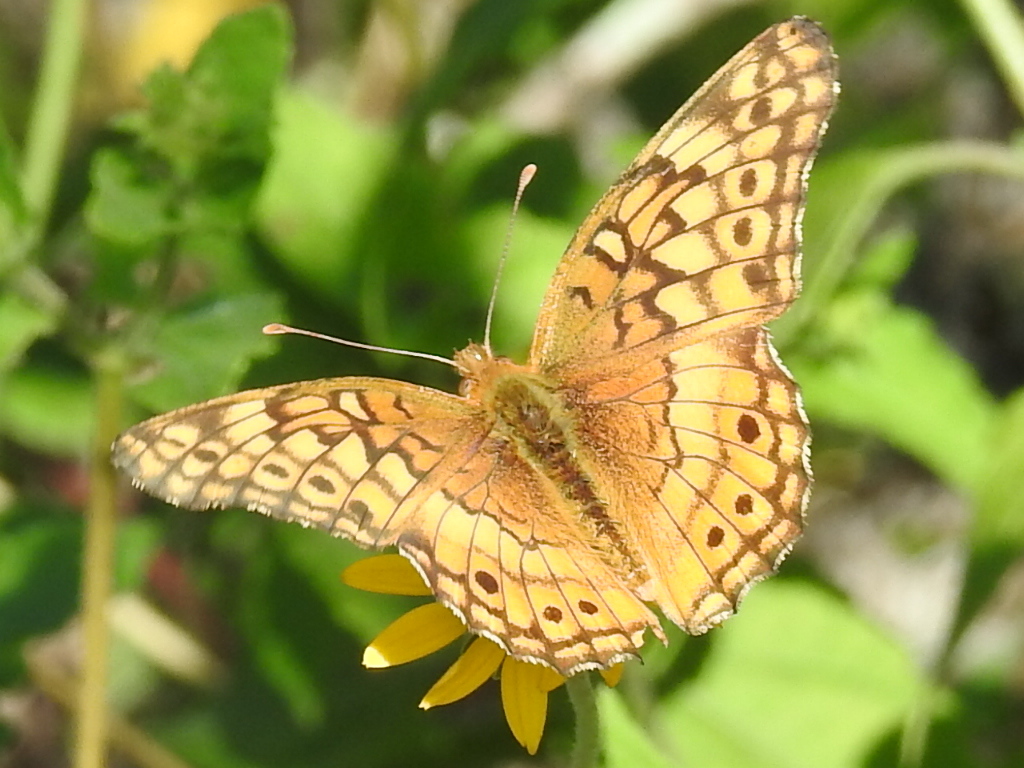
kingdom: Animalia
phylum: Arthropoda
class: Insecta
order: Lepidoptera
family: Nymphalidae
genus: Euptoieta
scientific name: Euptoieta claudia
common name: Variegated fritillary
